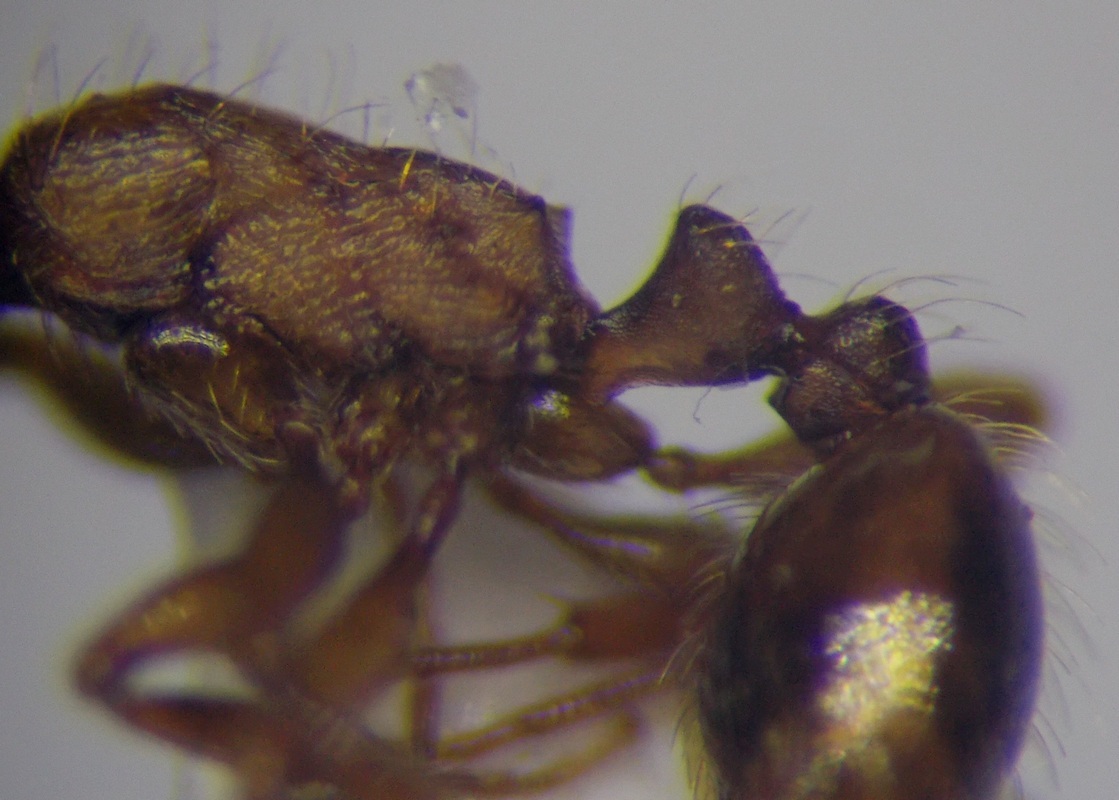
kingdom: Animalia
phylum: Arthropoda
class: Insecta
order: Hymenoptera
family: Formicidae
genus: Strongylognathus
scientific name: Strongylognathus rehbinderi
